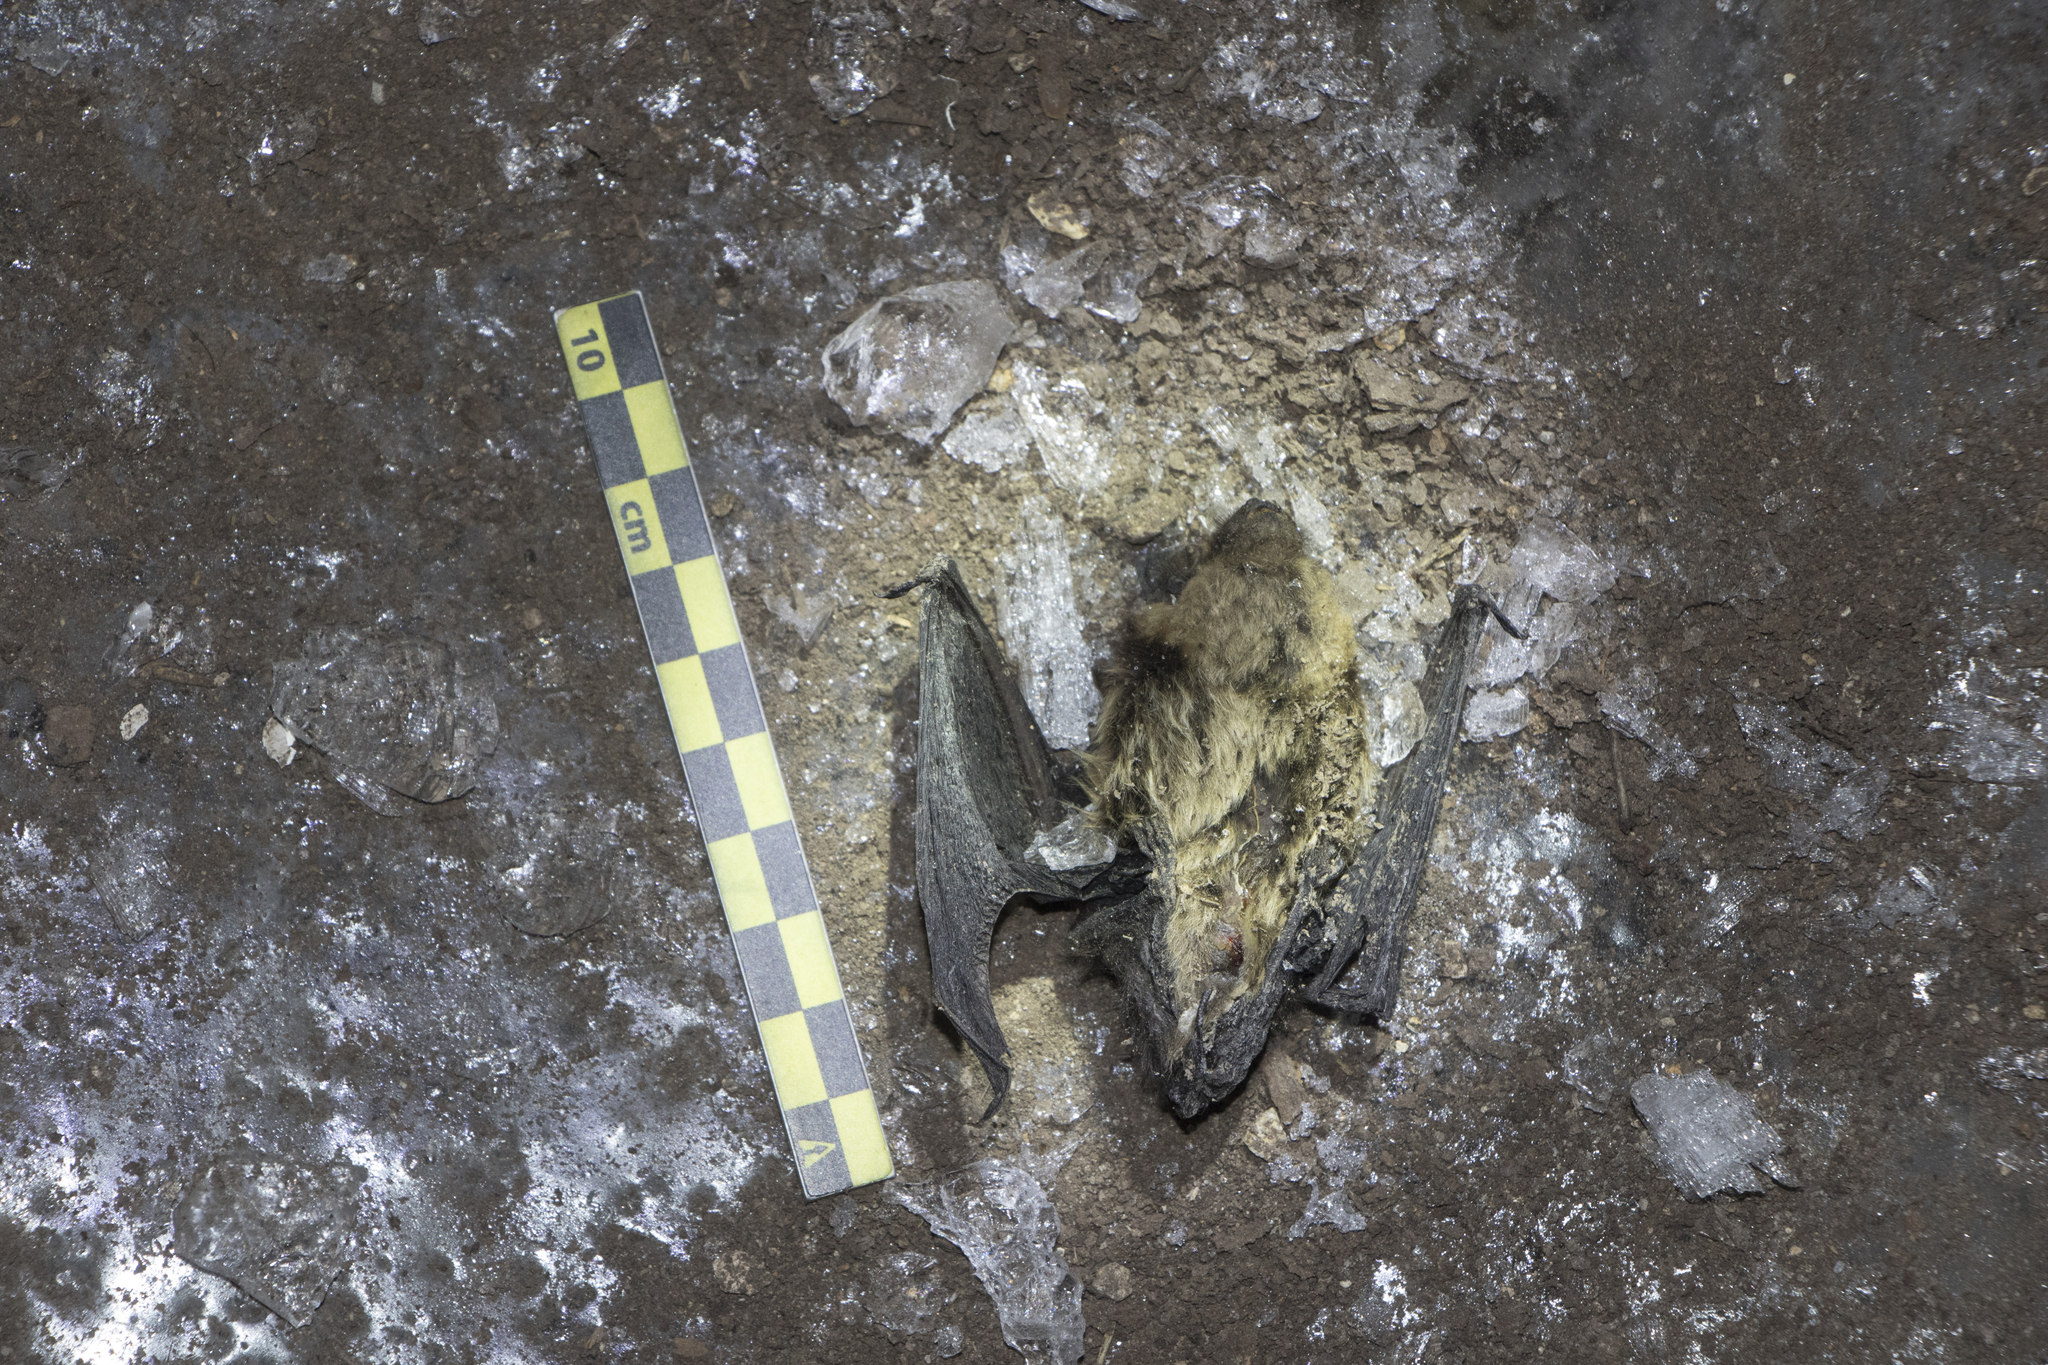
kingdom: Animalia
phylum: Chordata
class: Mammalia
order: Chiroptera
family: Vespertilionidae
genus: Eptesicus
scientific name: Eptesicus nilssonii
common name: Northern bat
